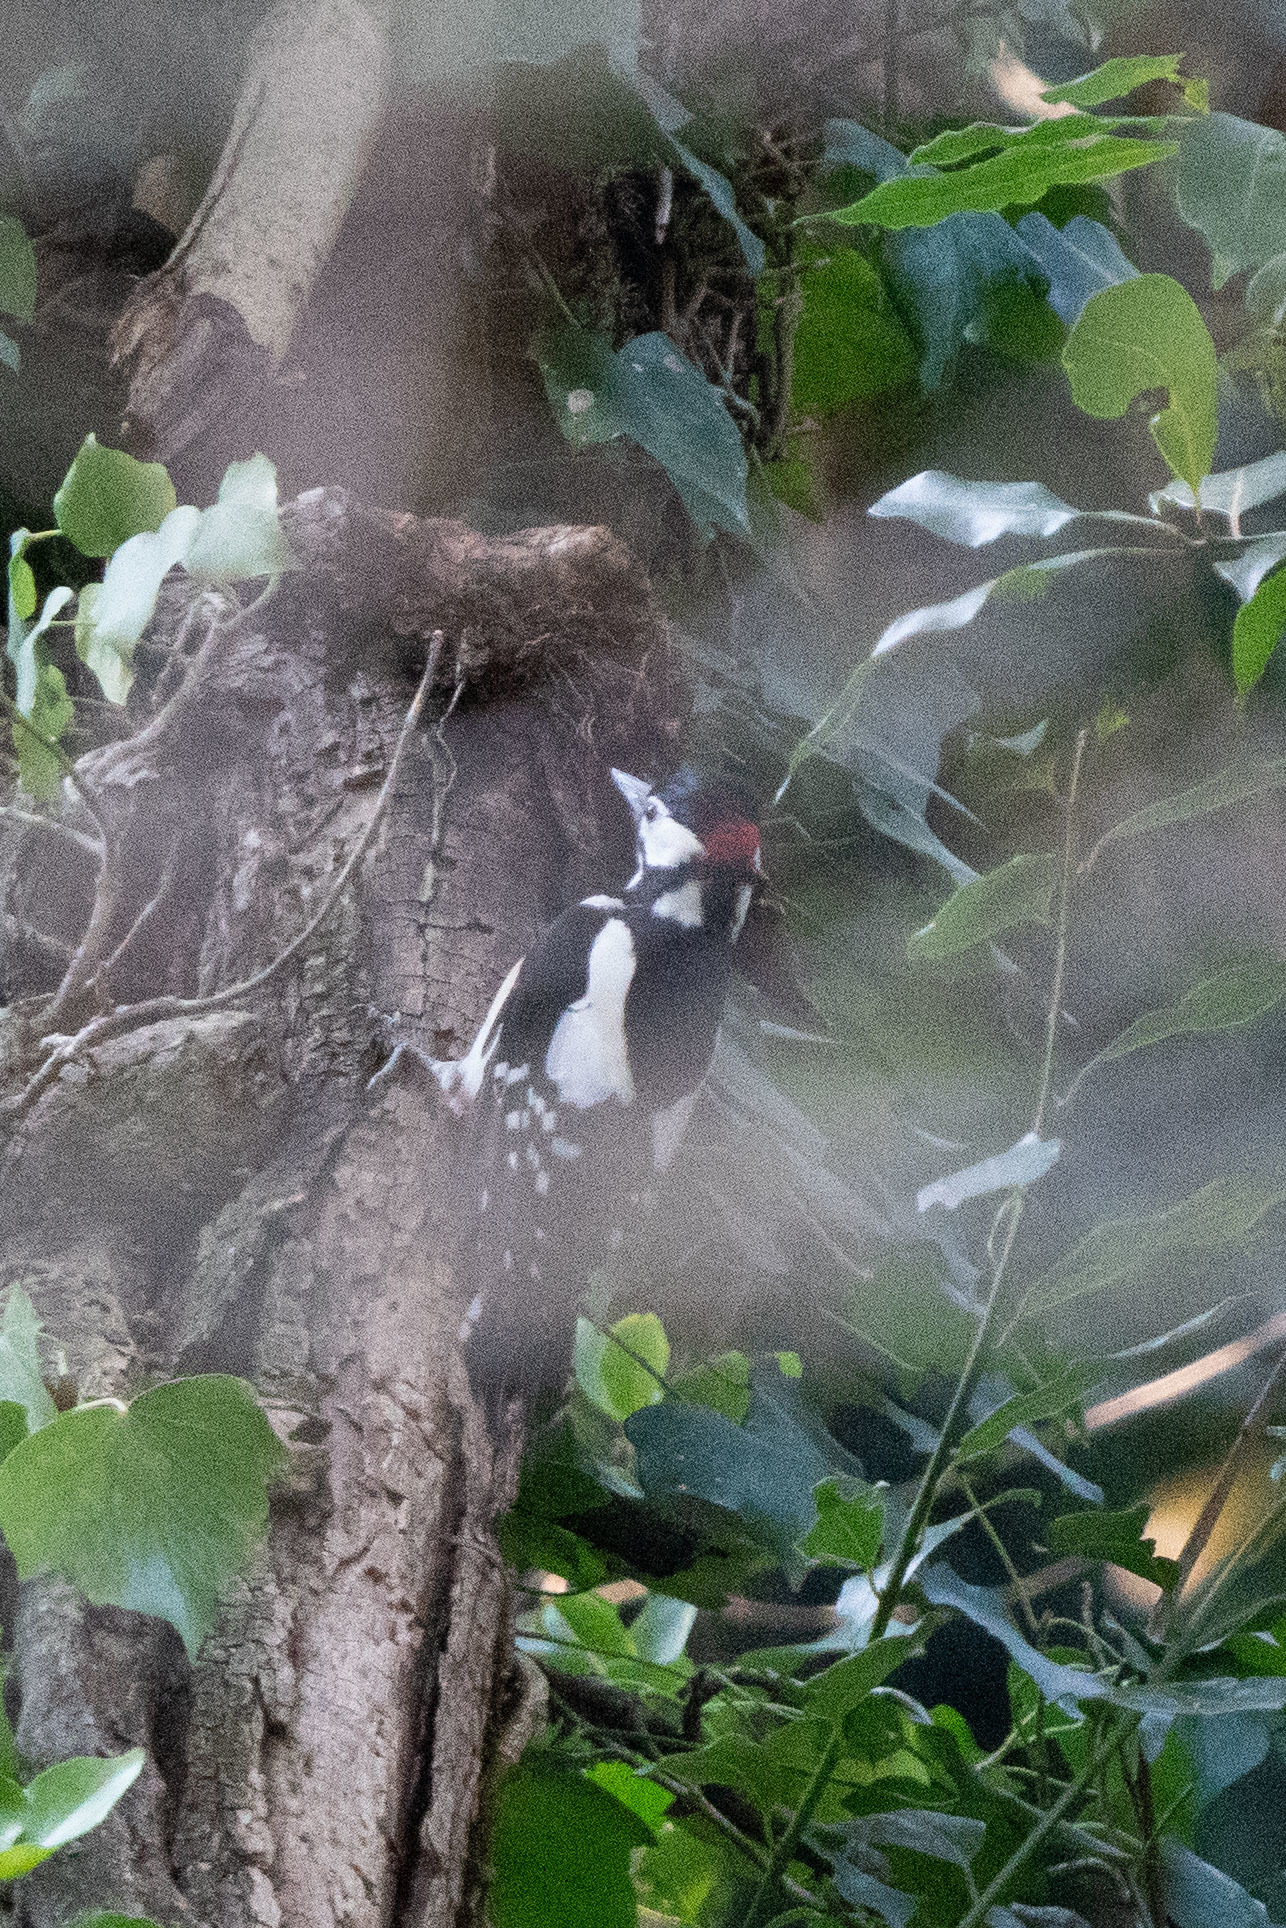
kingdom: Animalia
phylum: Chordata
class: Aves
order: Piciformes
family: Picidae
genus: Dendrocopos
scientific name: Dendrocopos major
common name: Great spotted woodpecker
